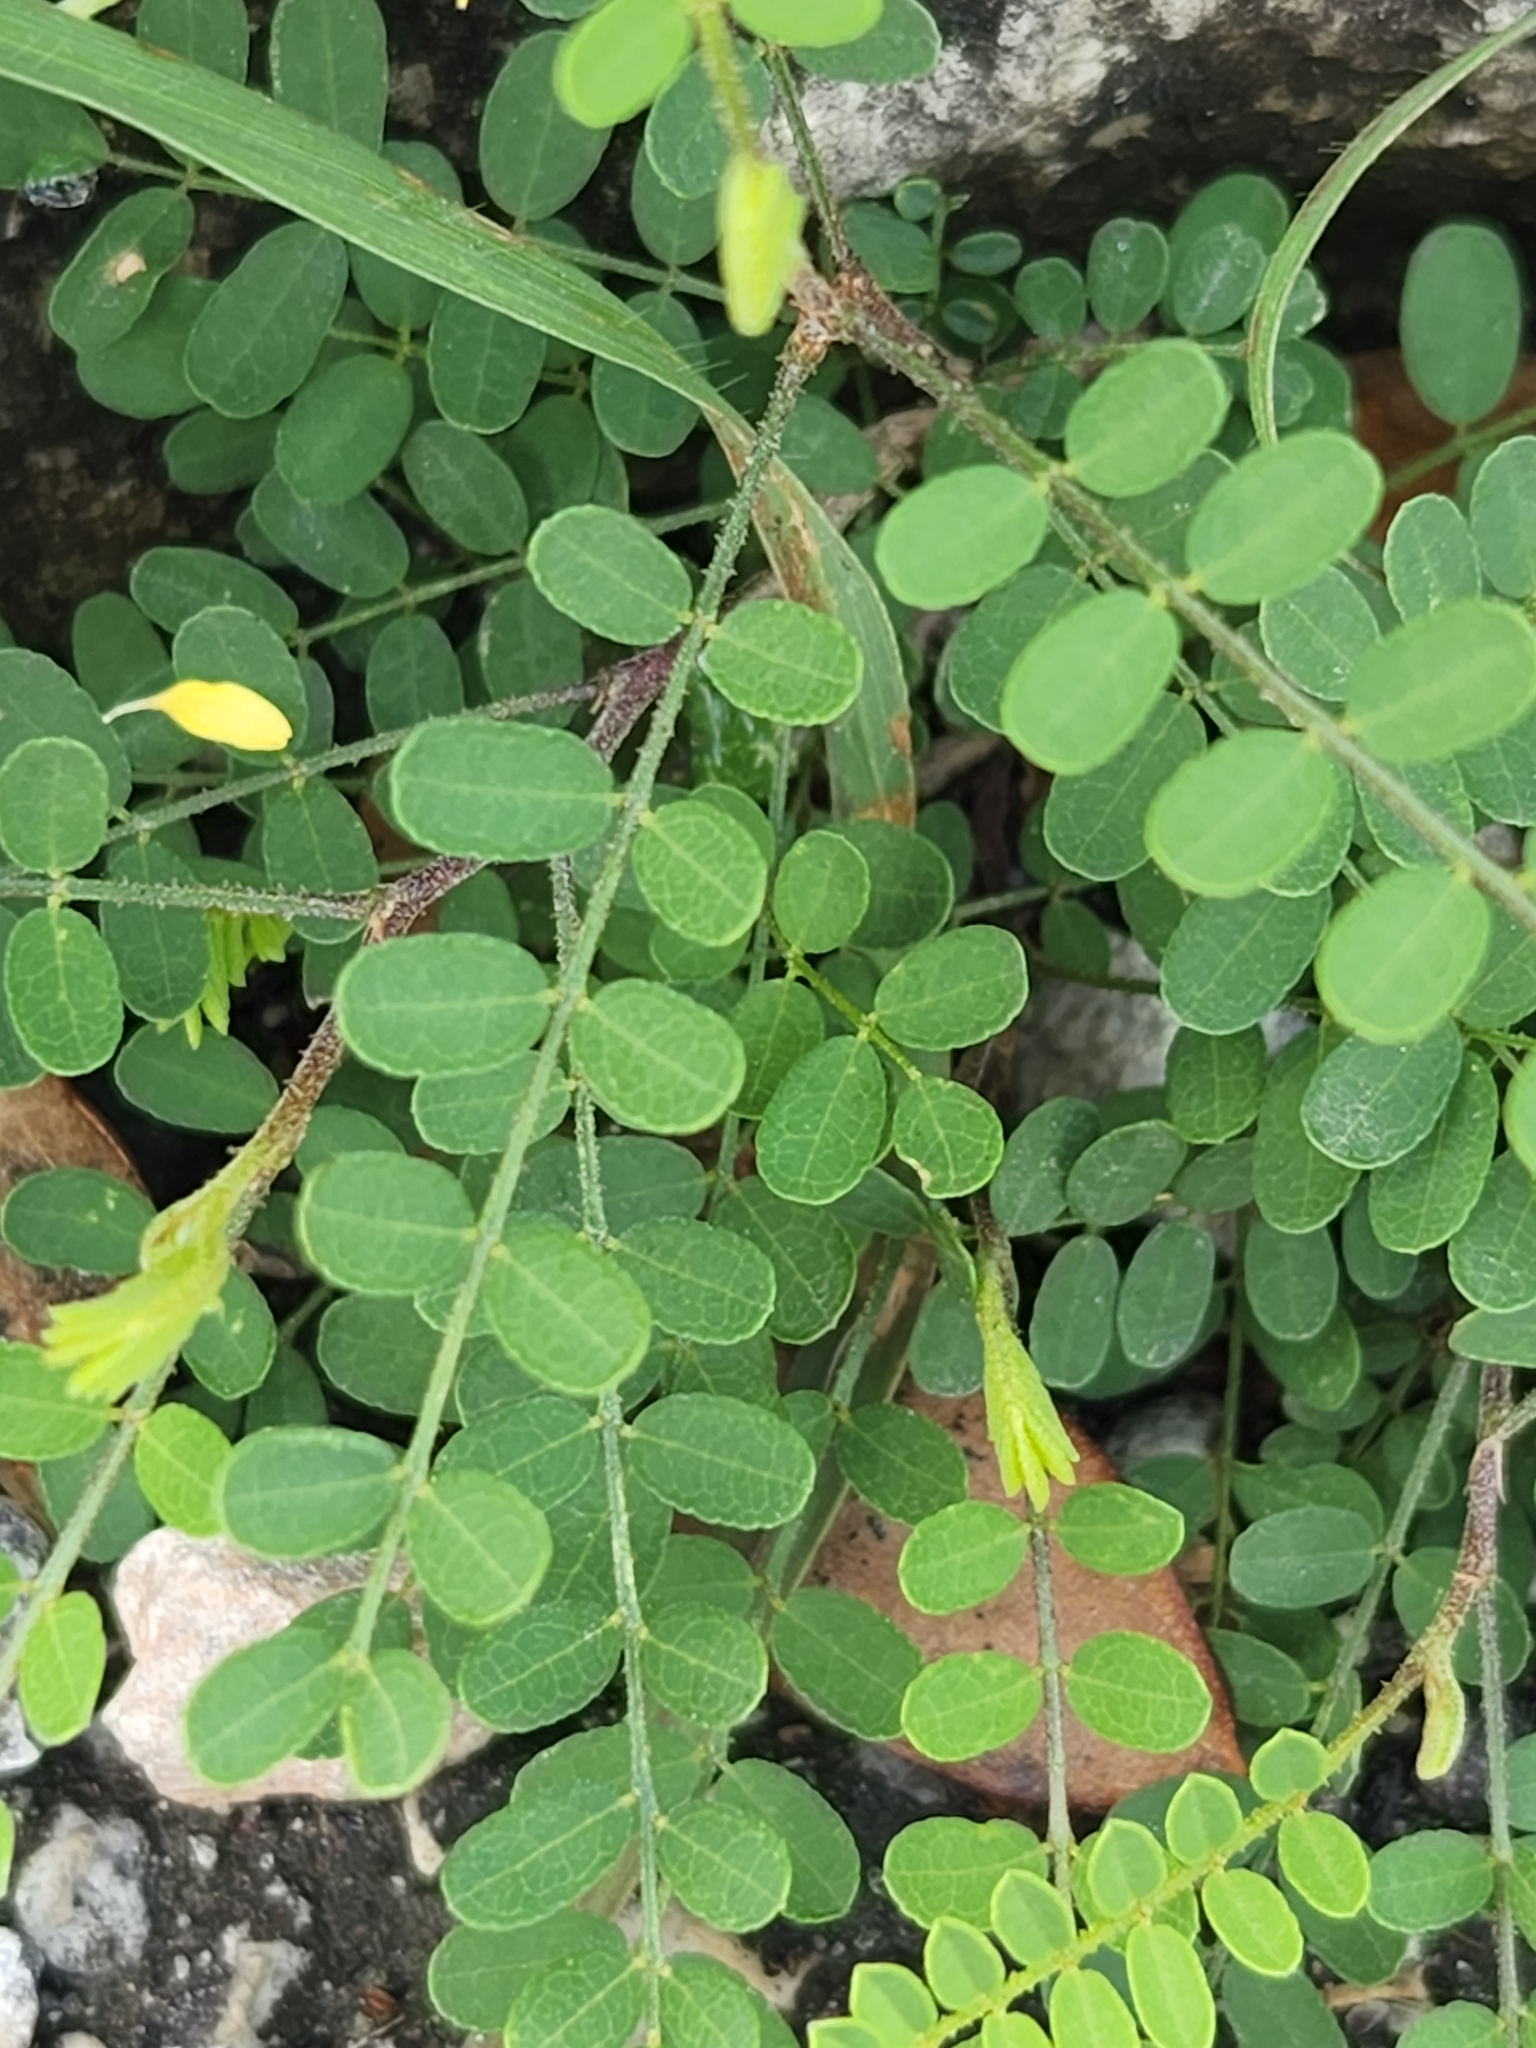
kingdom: Plantae
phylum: Tracheophyta
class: Magnoliopsida
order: Fabales
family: Fabaceae
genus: Eysenhardtia
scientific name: Eysenhardtia texana
